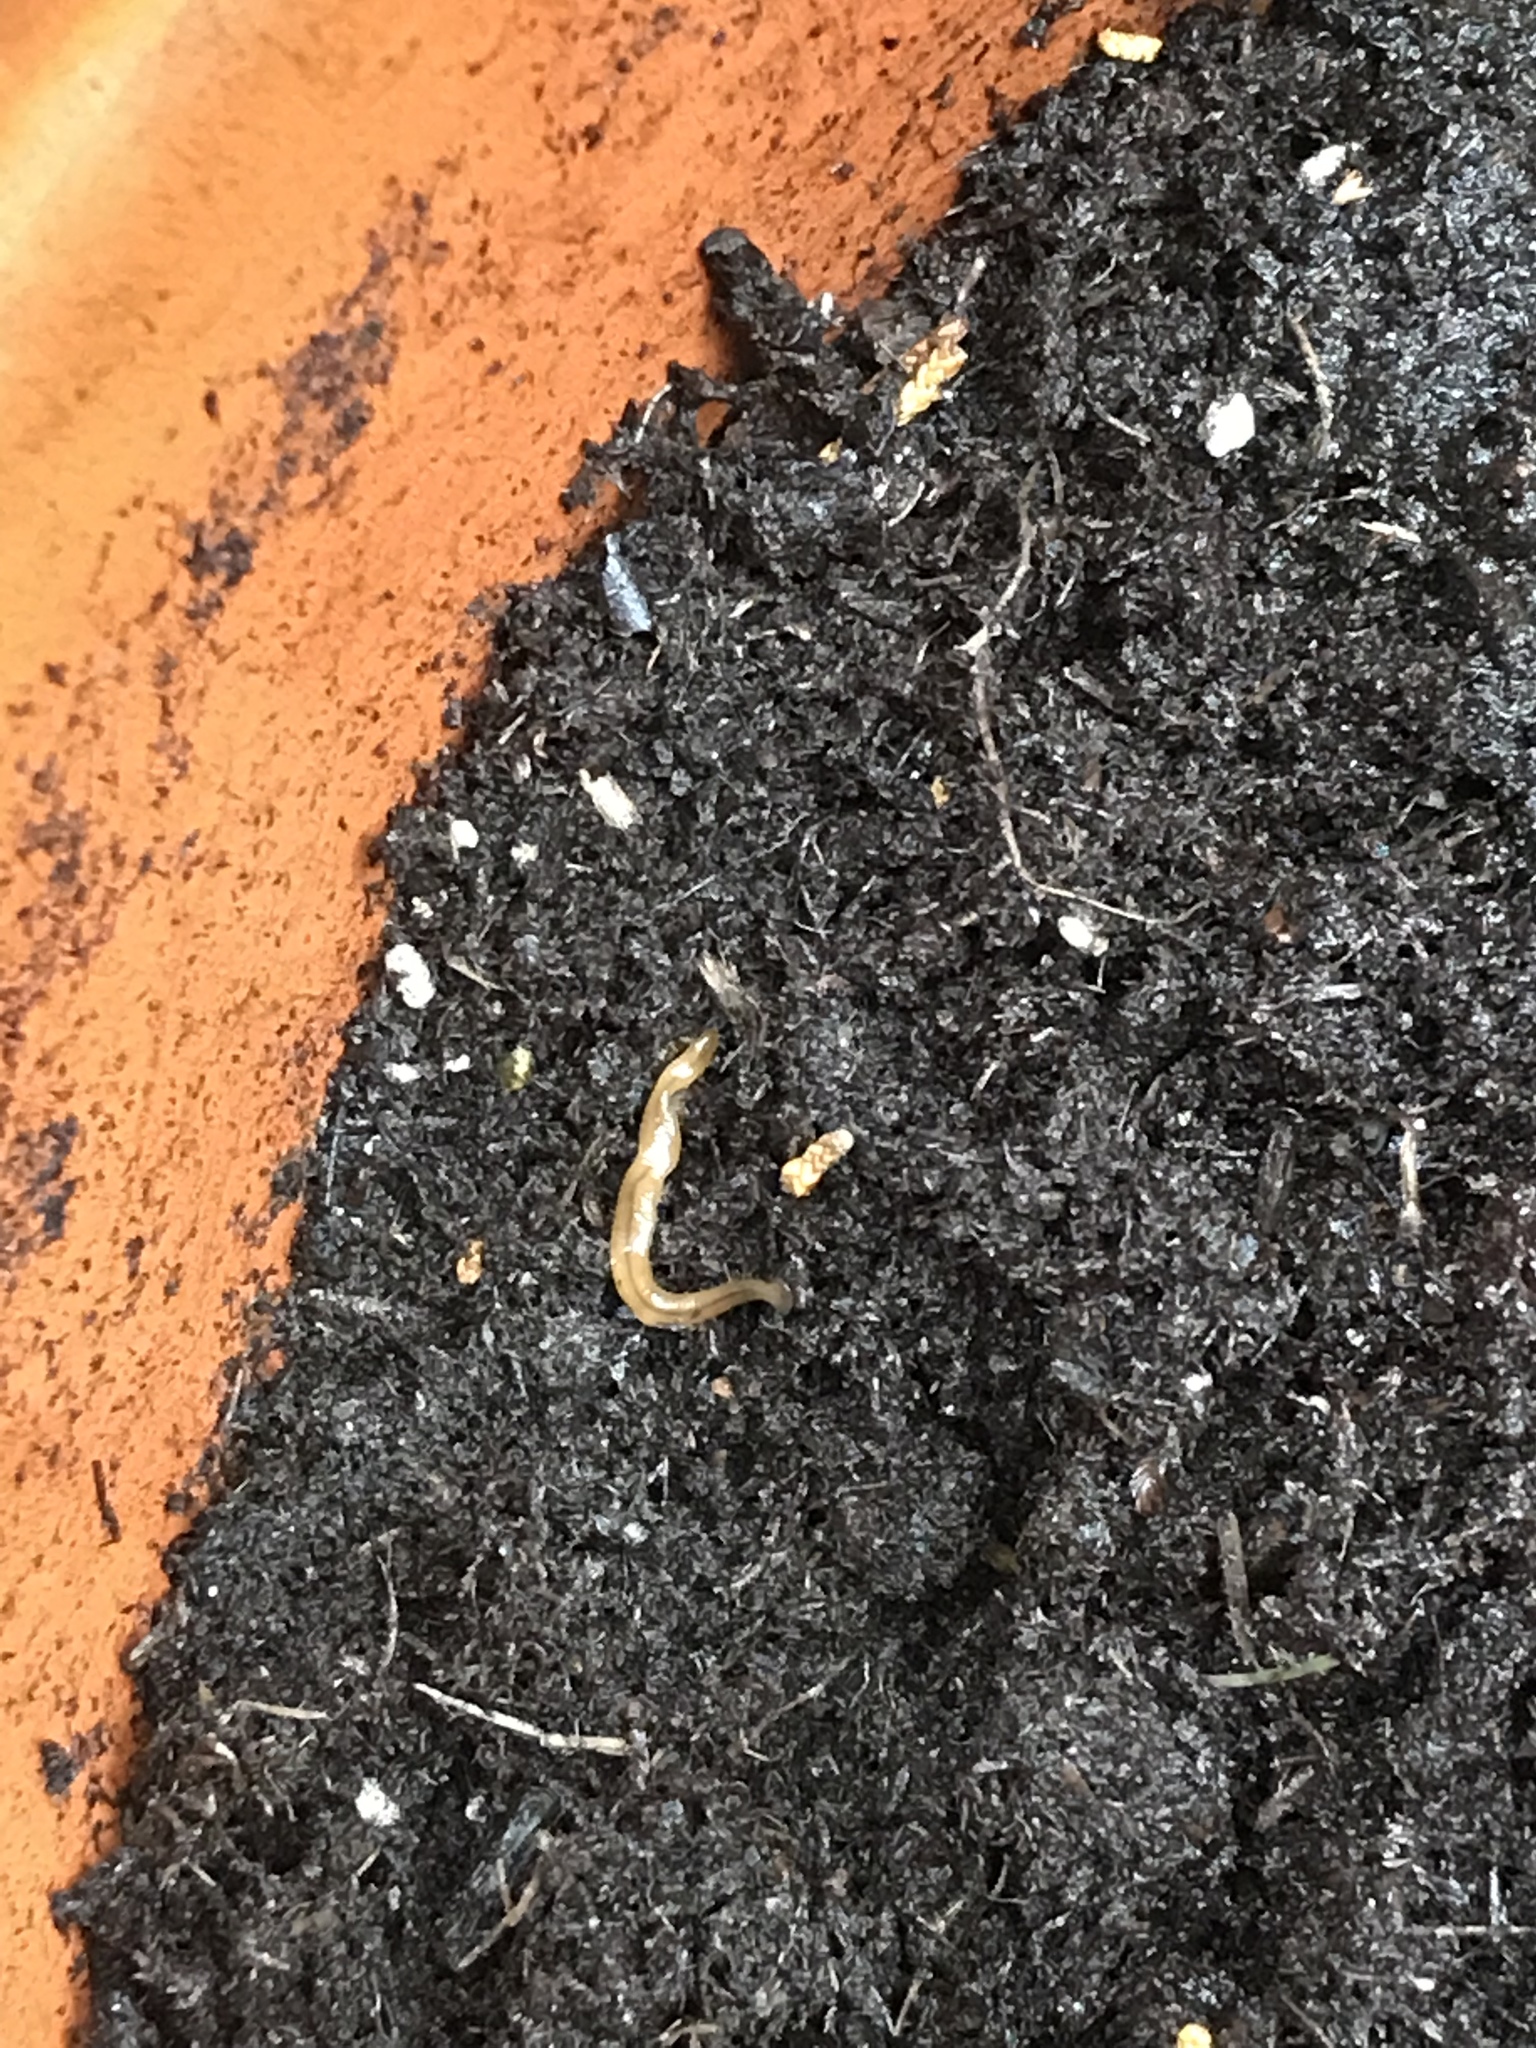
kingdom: Animalia
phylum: Platyhelminthes
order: Tricladida
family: Geoplanidae
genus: Bipalium
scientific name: Bipalium adventitium
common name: Land planarian
